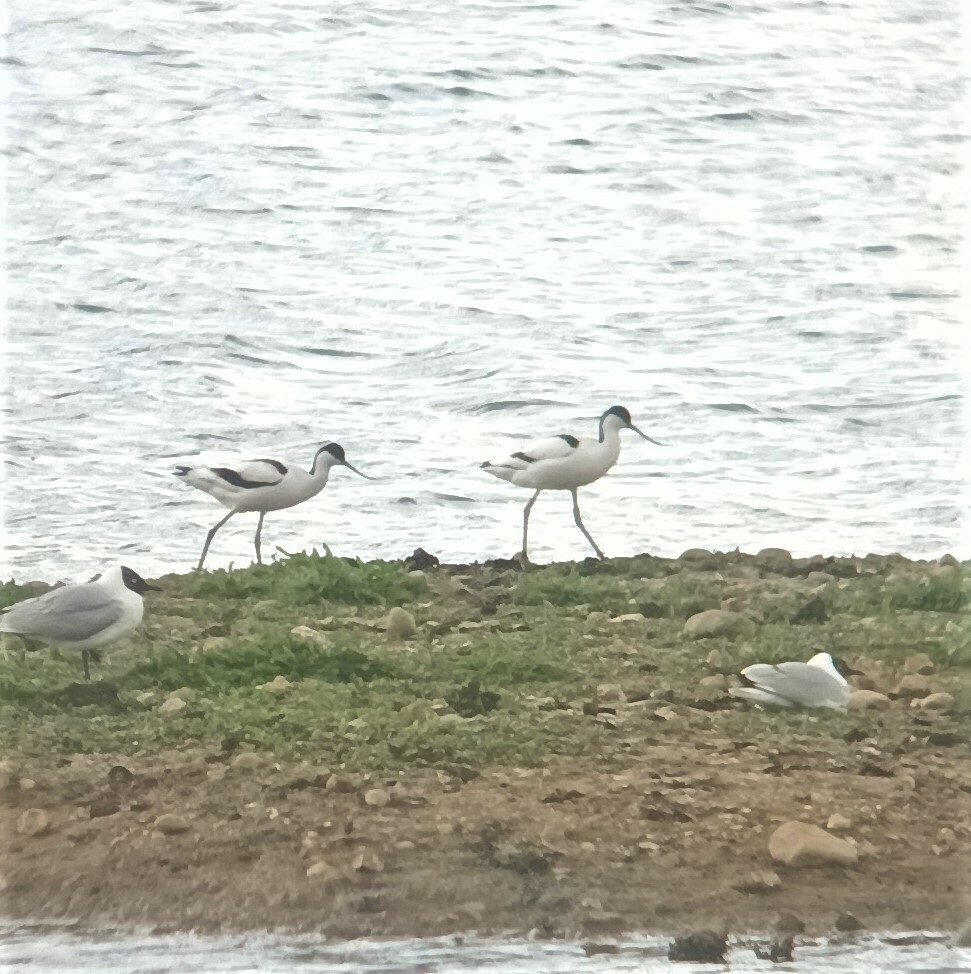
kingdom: Animalia
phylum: Chordata
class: Aves
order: Charadriiformes
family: Recurvirostridae
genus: Recurvirostra
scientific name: Recurvirostra avosetta
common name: Pied avocet
